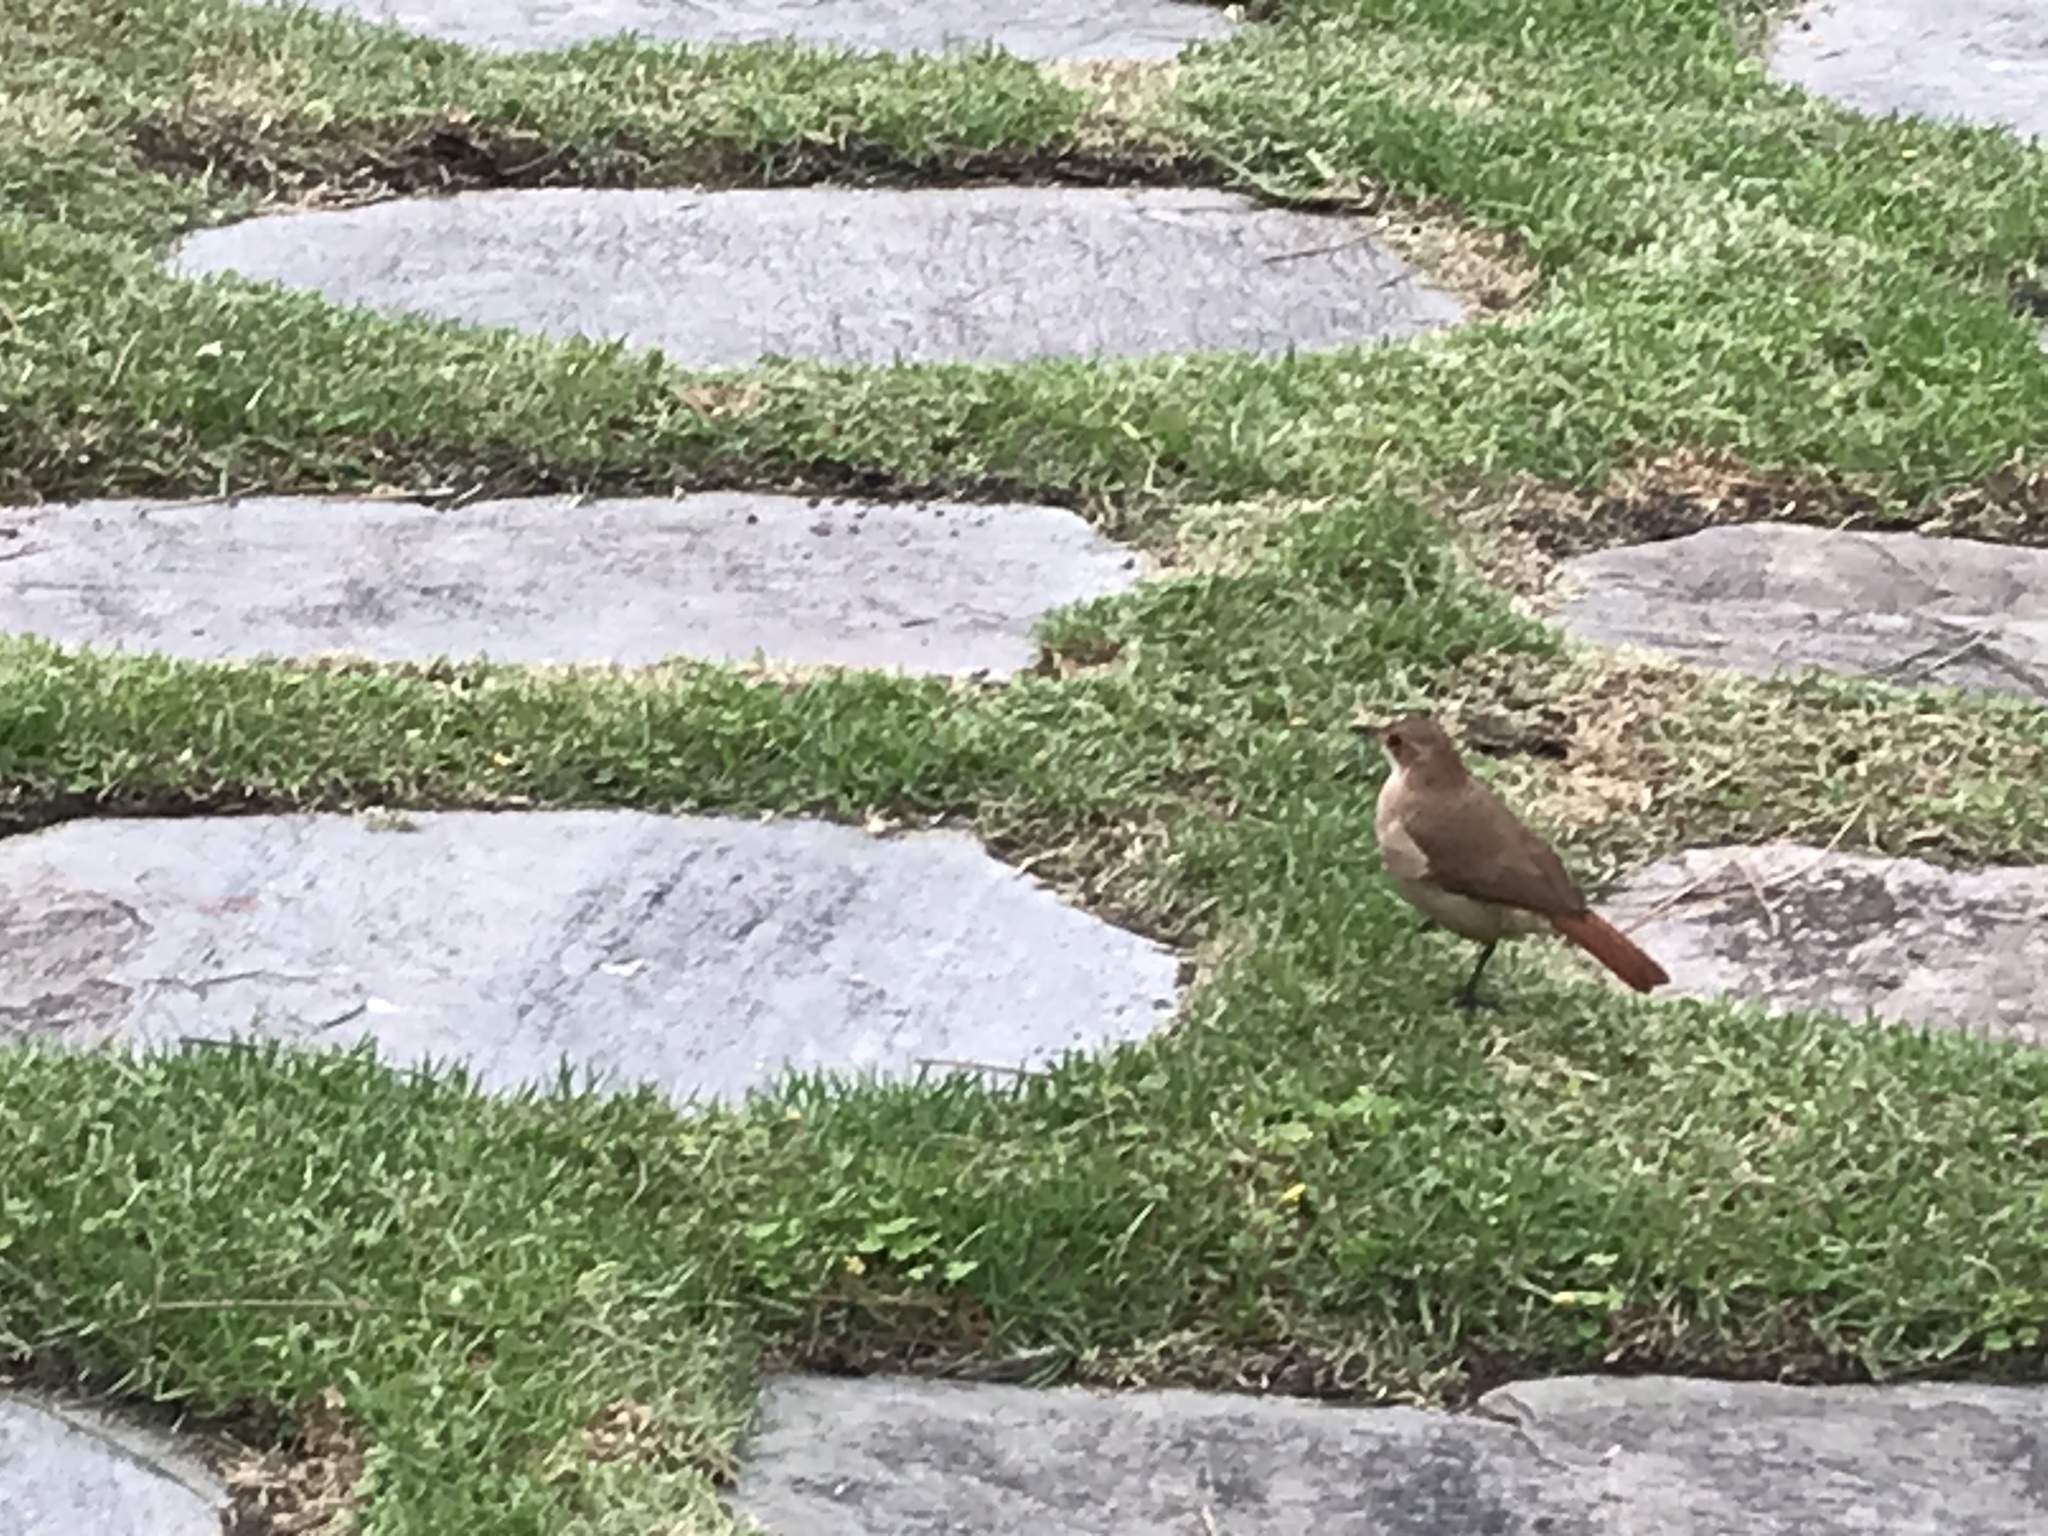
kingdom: Animalia
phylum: Chordata
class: Aves
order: Passeriformes
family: Furnariidae
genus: Furnarius
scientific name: Furnarius rufus
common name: Rufous hornero
